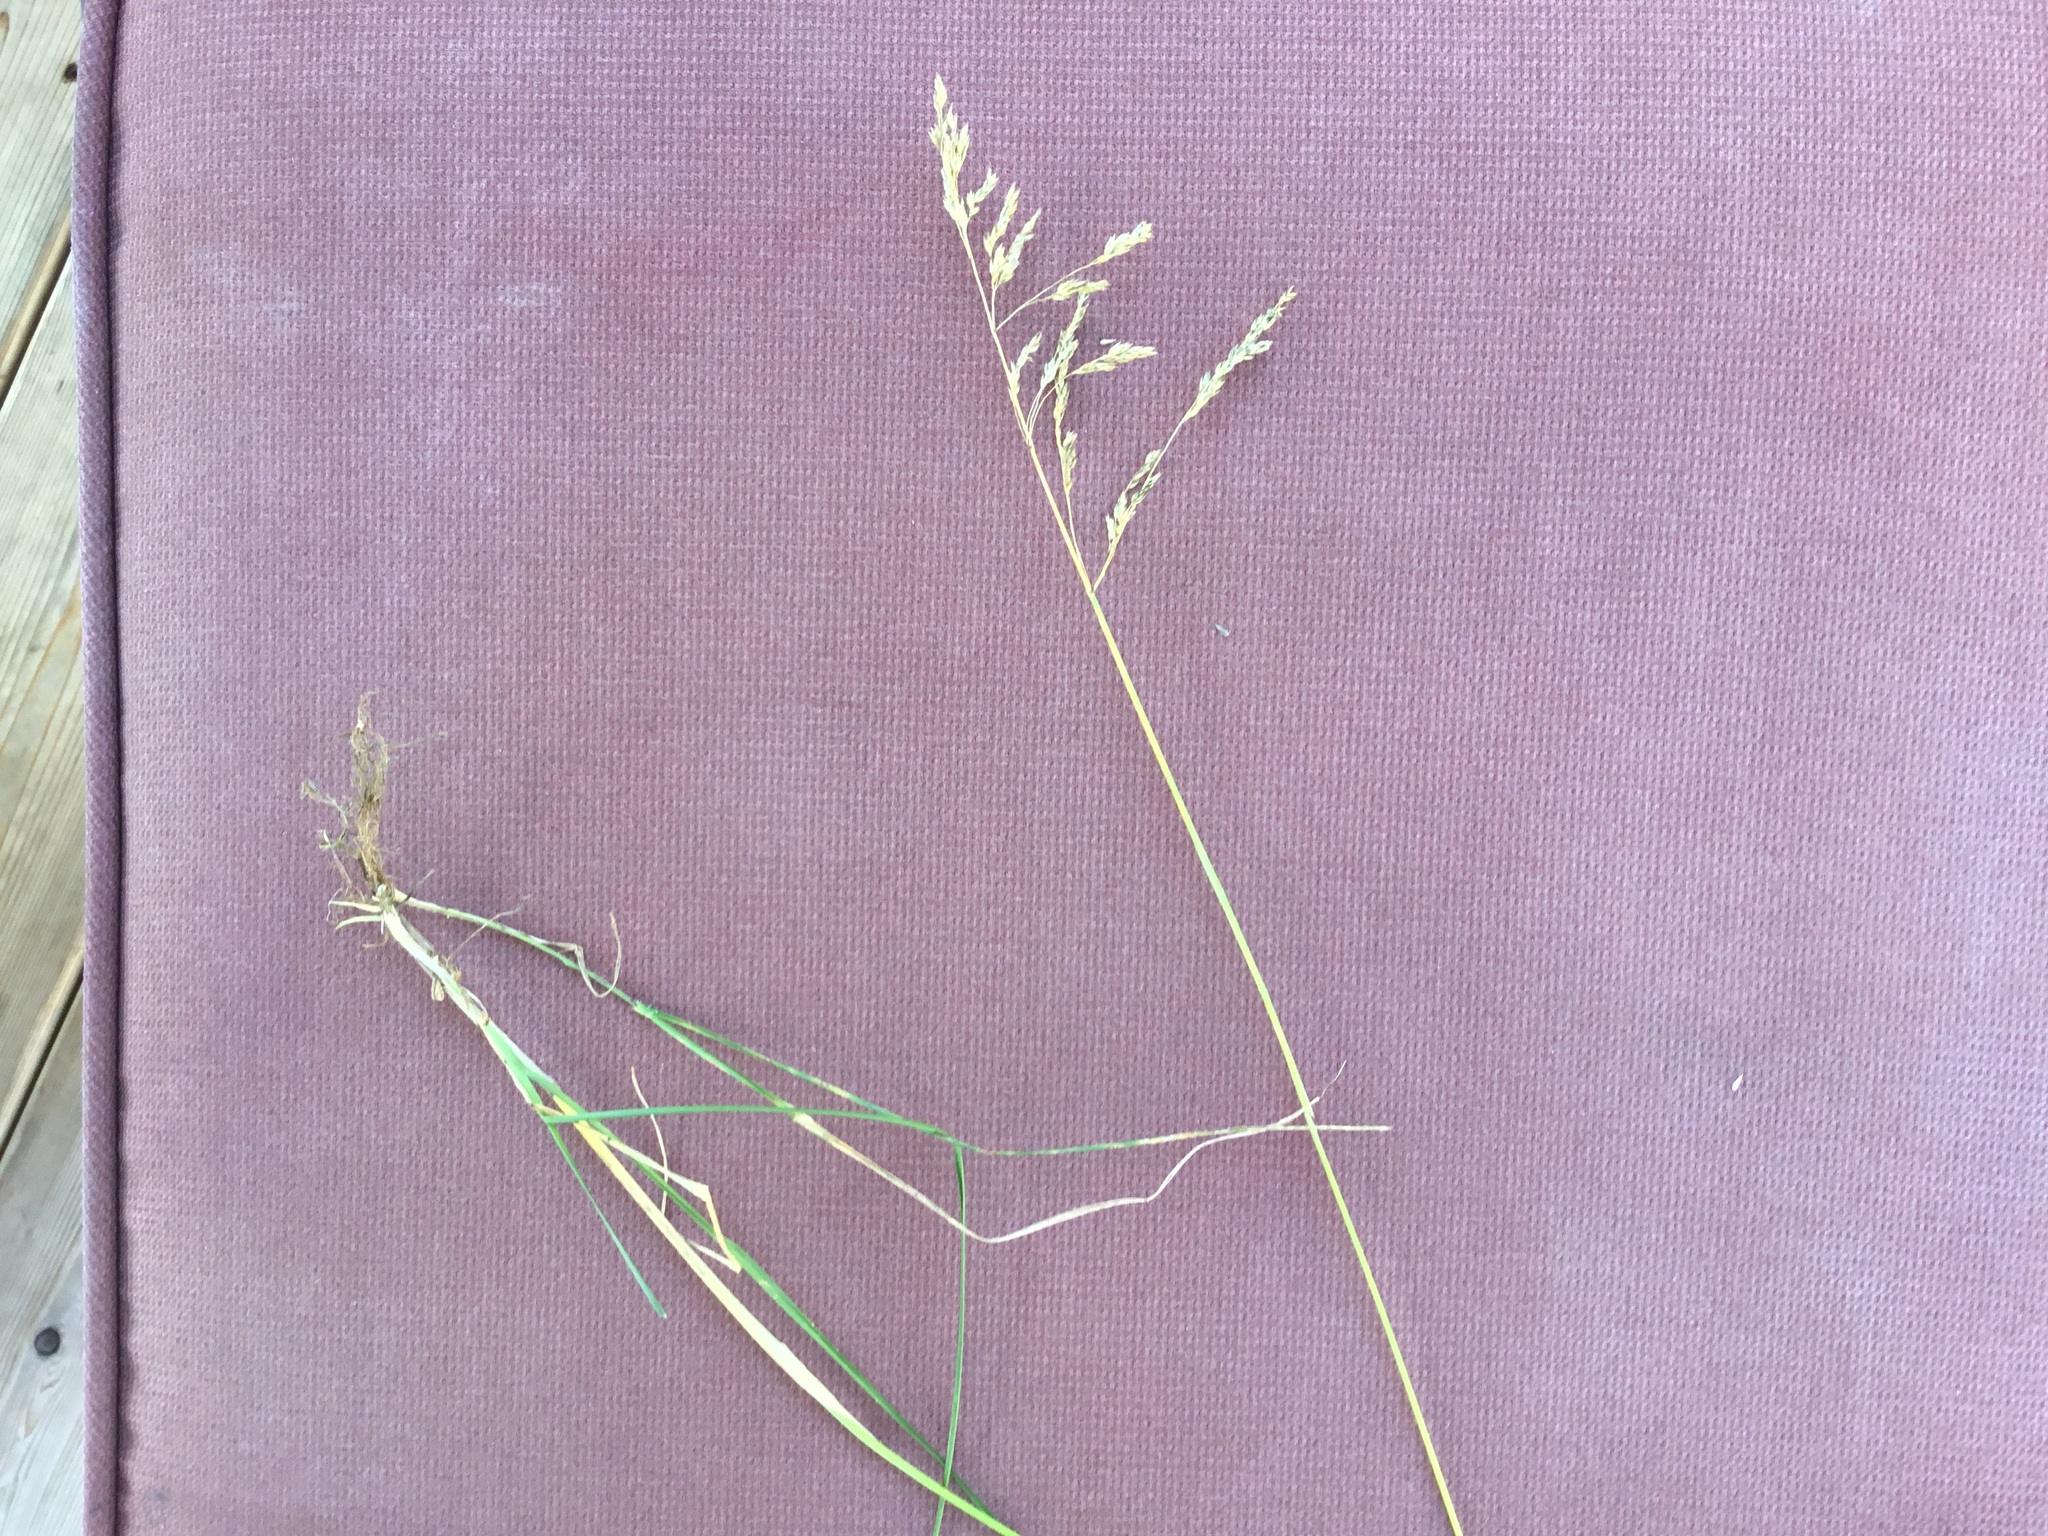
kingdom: Plantae
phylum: Tracheophyta
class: Liliopsida
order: Poales
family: Poaceae
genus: Poa
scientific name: Poa pratensis
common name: Kentucky bluegrass
